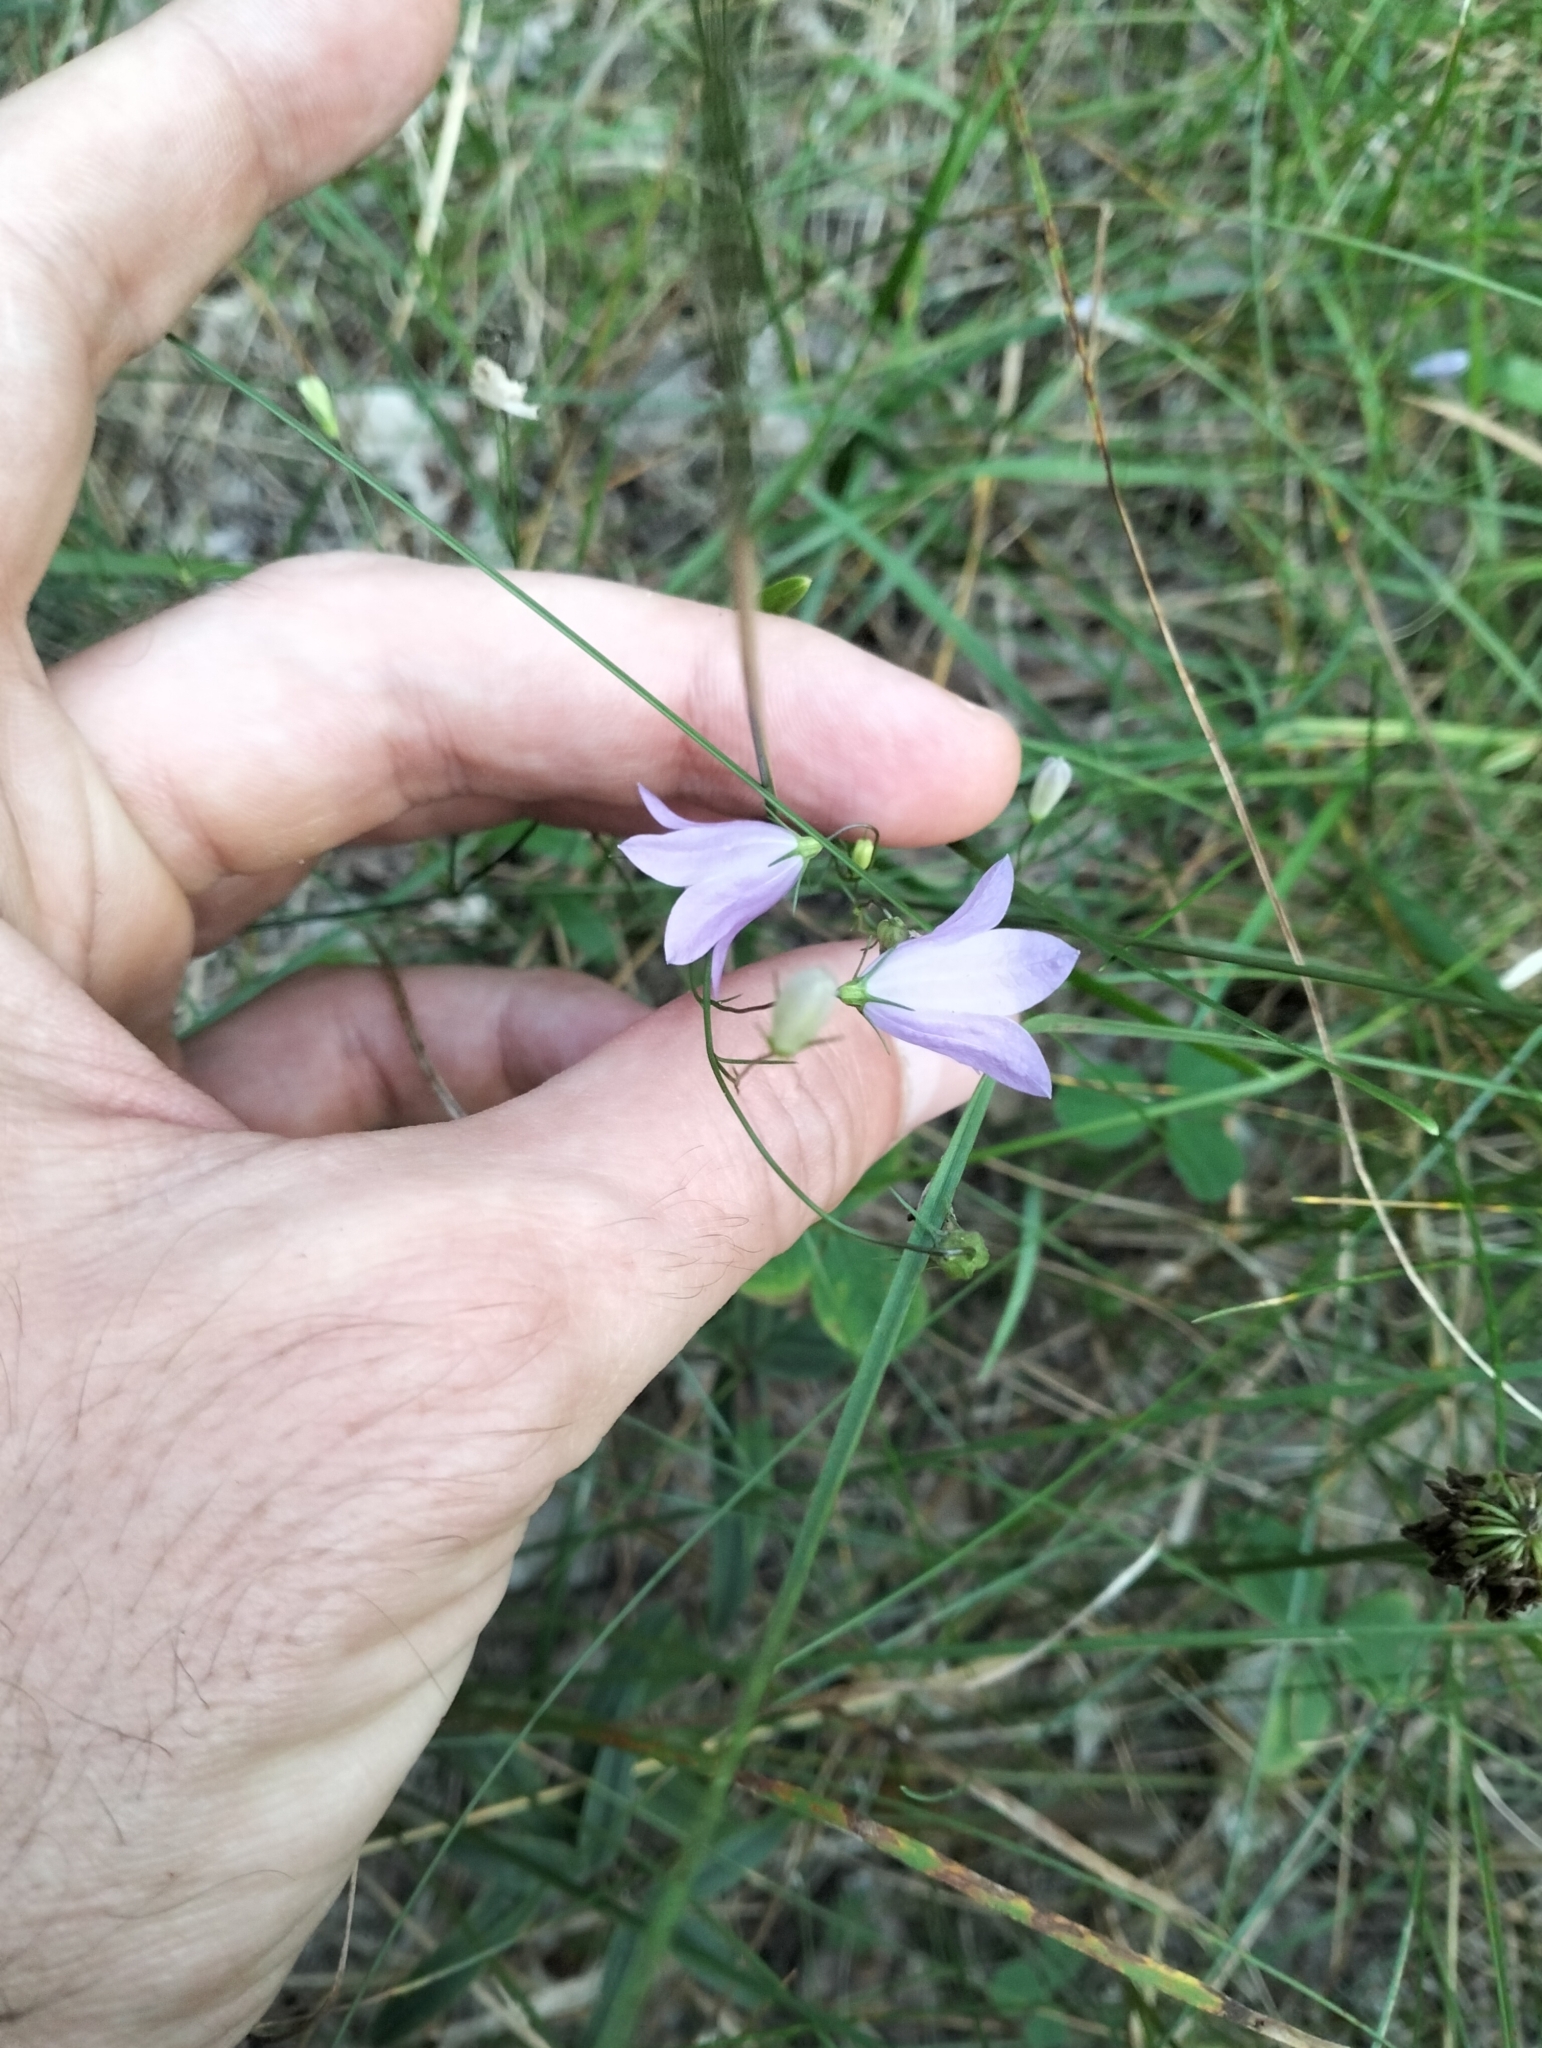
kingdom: Plantae
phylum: Tracheophyta
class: Magnoliopsida
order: Asterales
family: Campanulaceae
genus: Campanula
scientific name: Campanula rotundifolia
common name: Harebell
